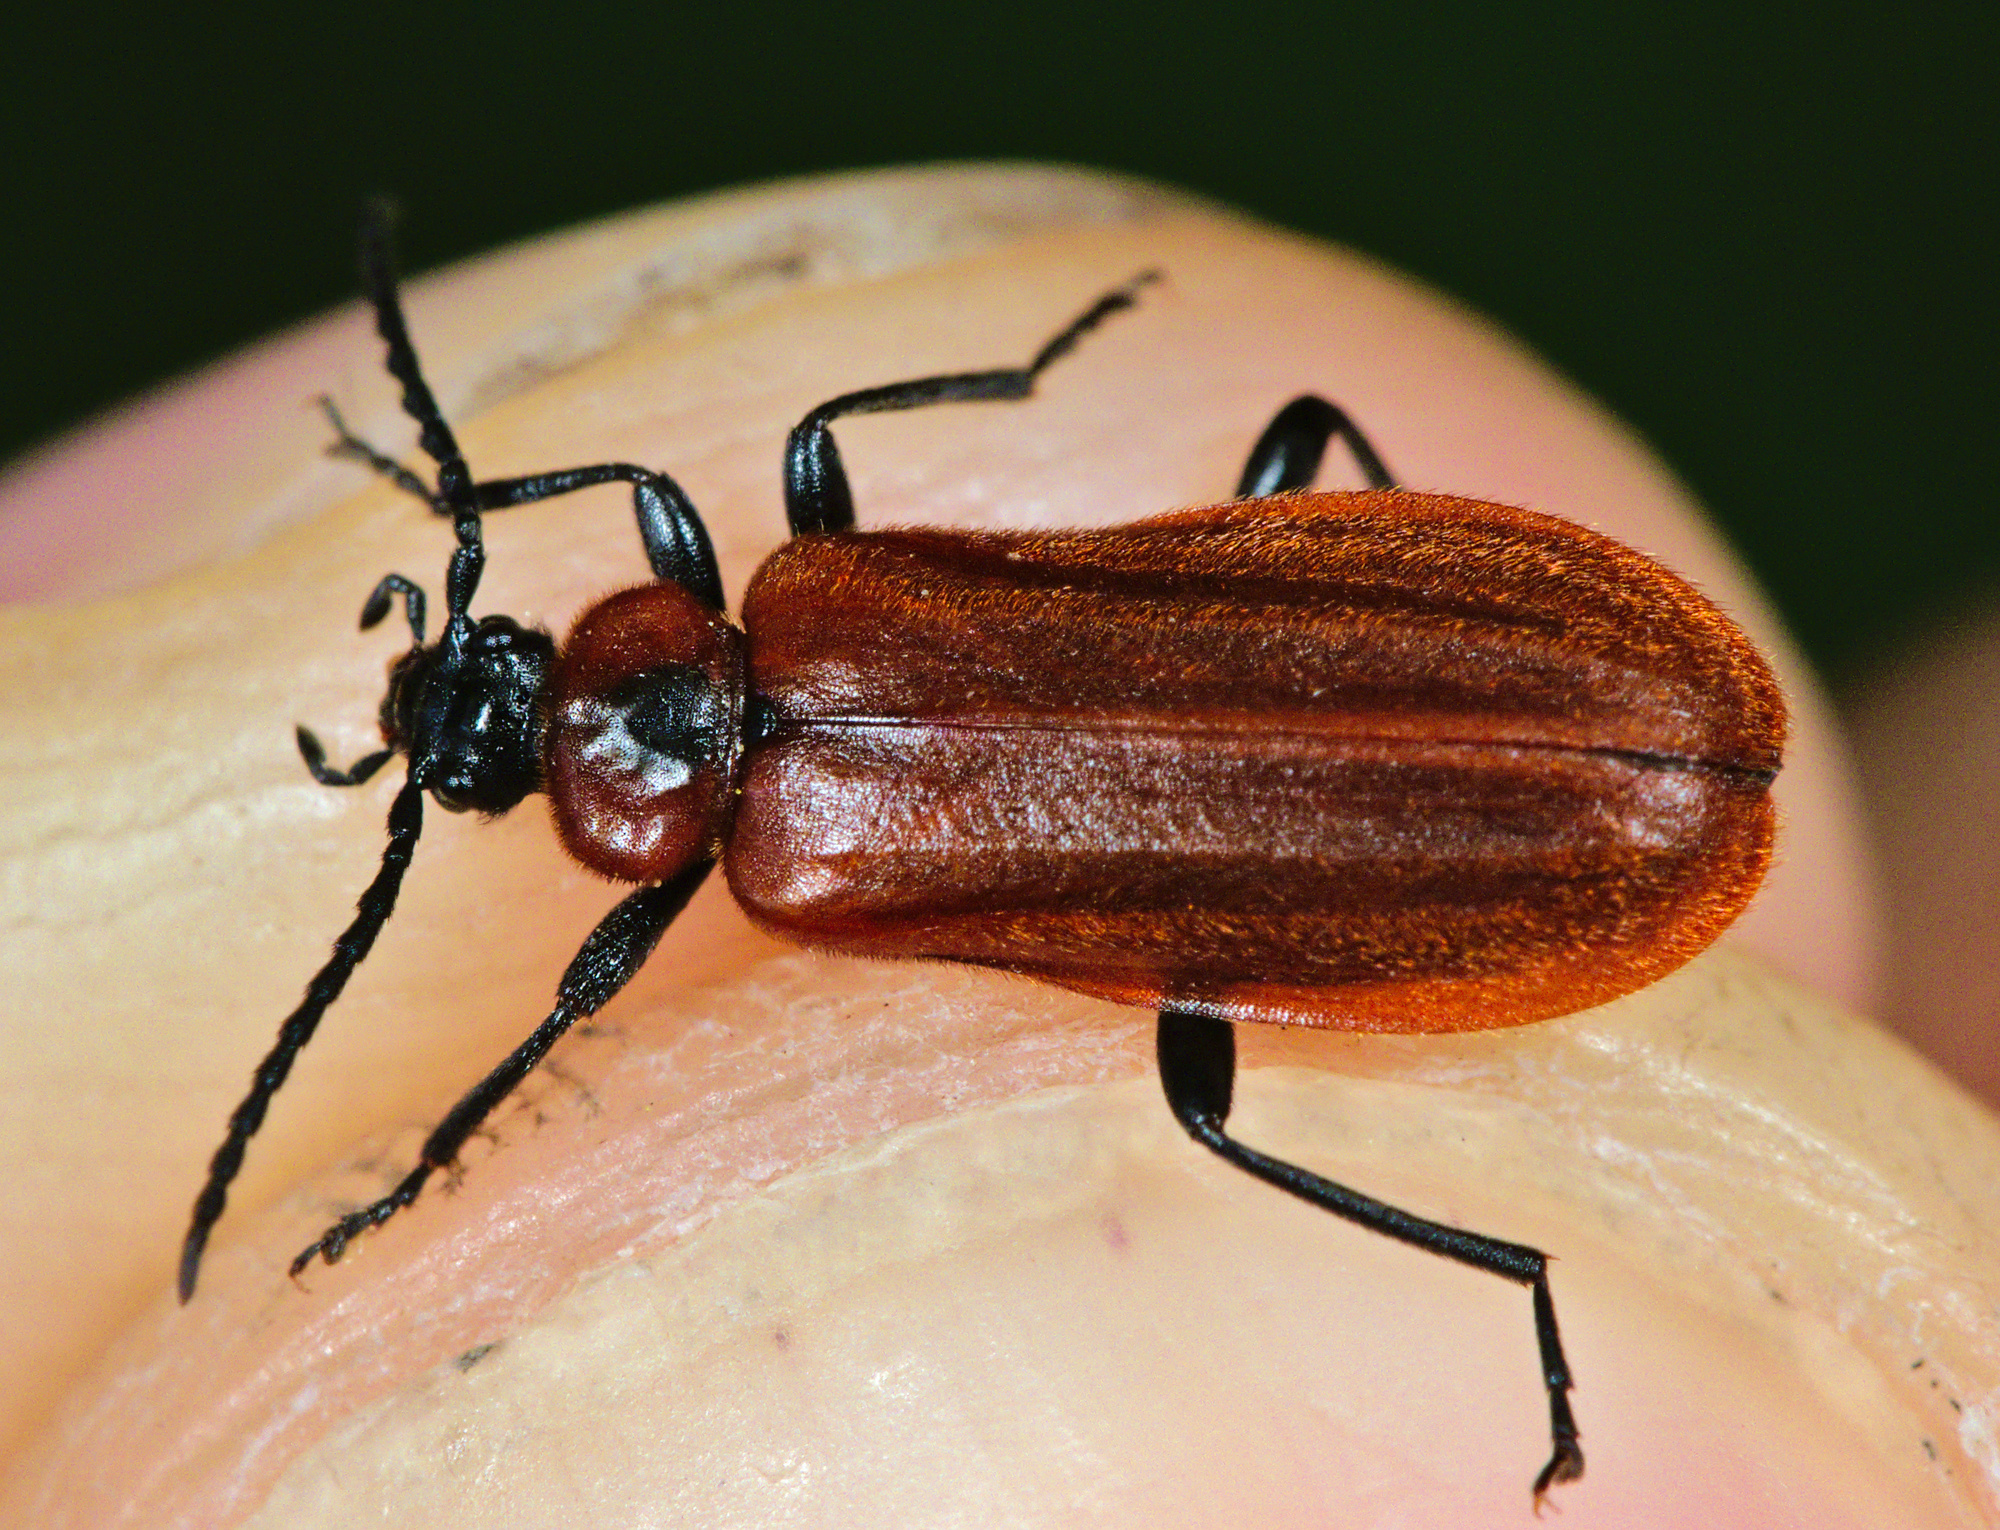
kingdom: Animalia
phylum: Arthropoda
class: Insecta
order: Coleoptera
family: Pyrochroidae
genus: Schizotus
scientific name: Schizotus pectinicornis
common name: Scarce cardinal beetle
